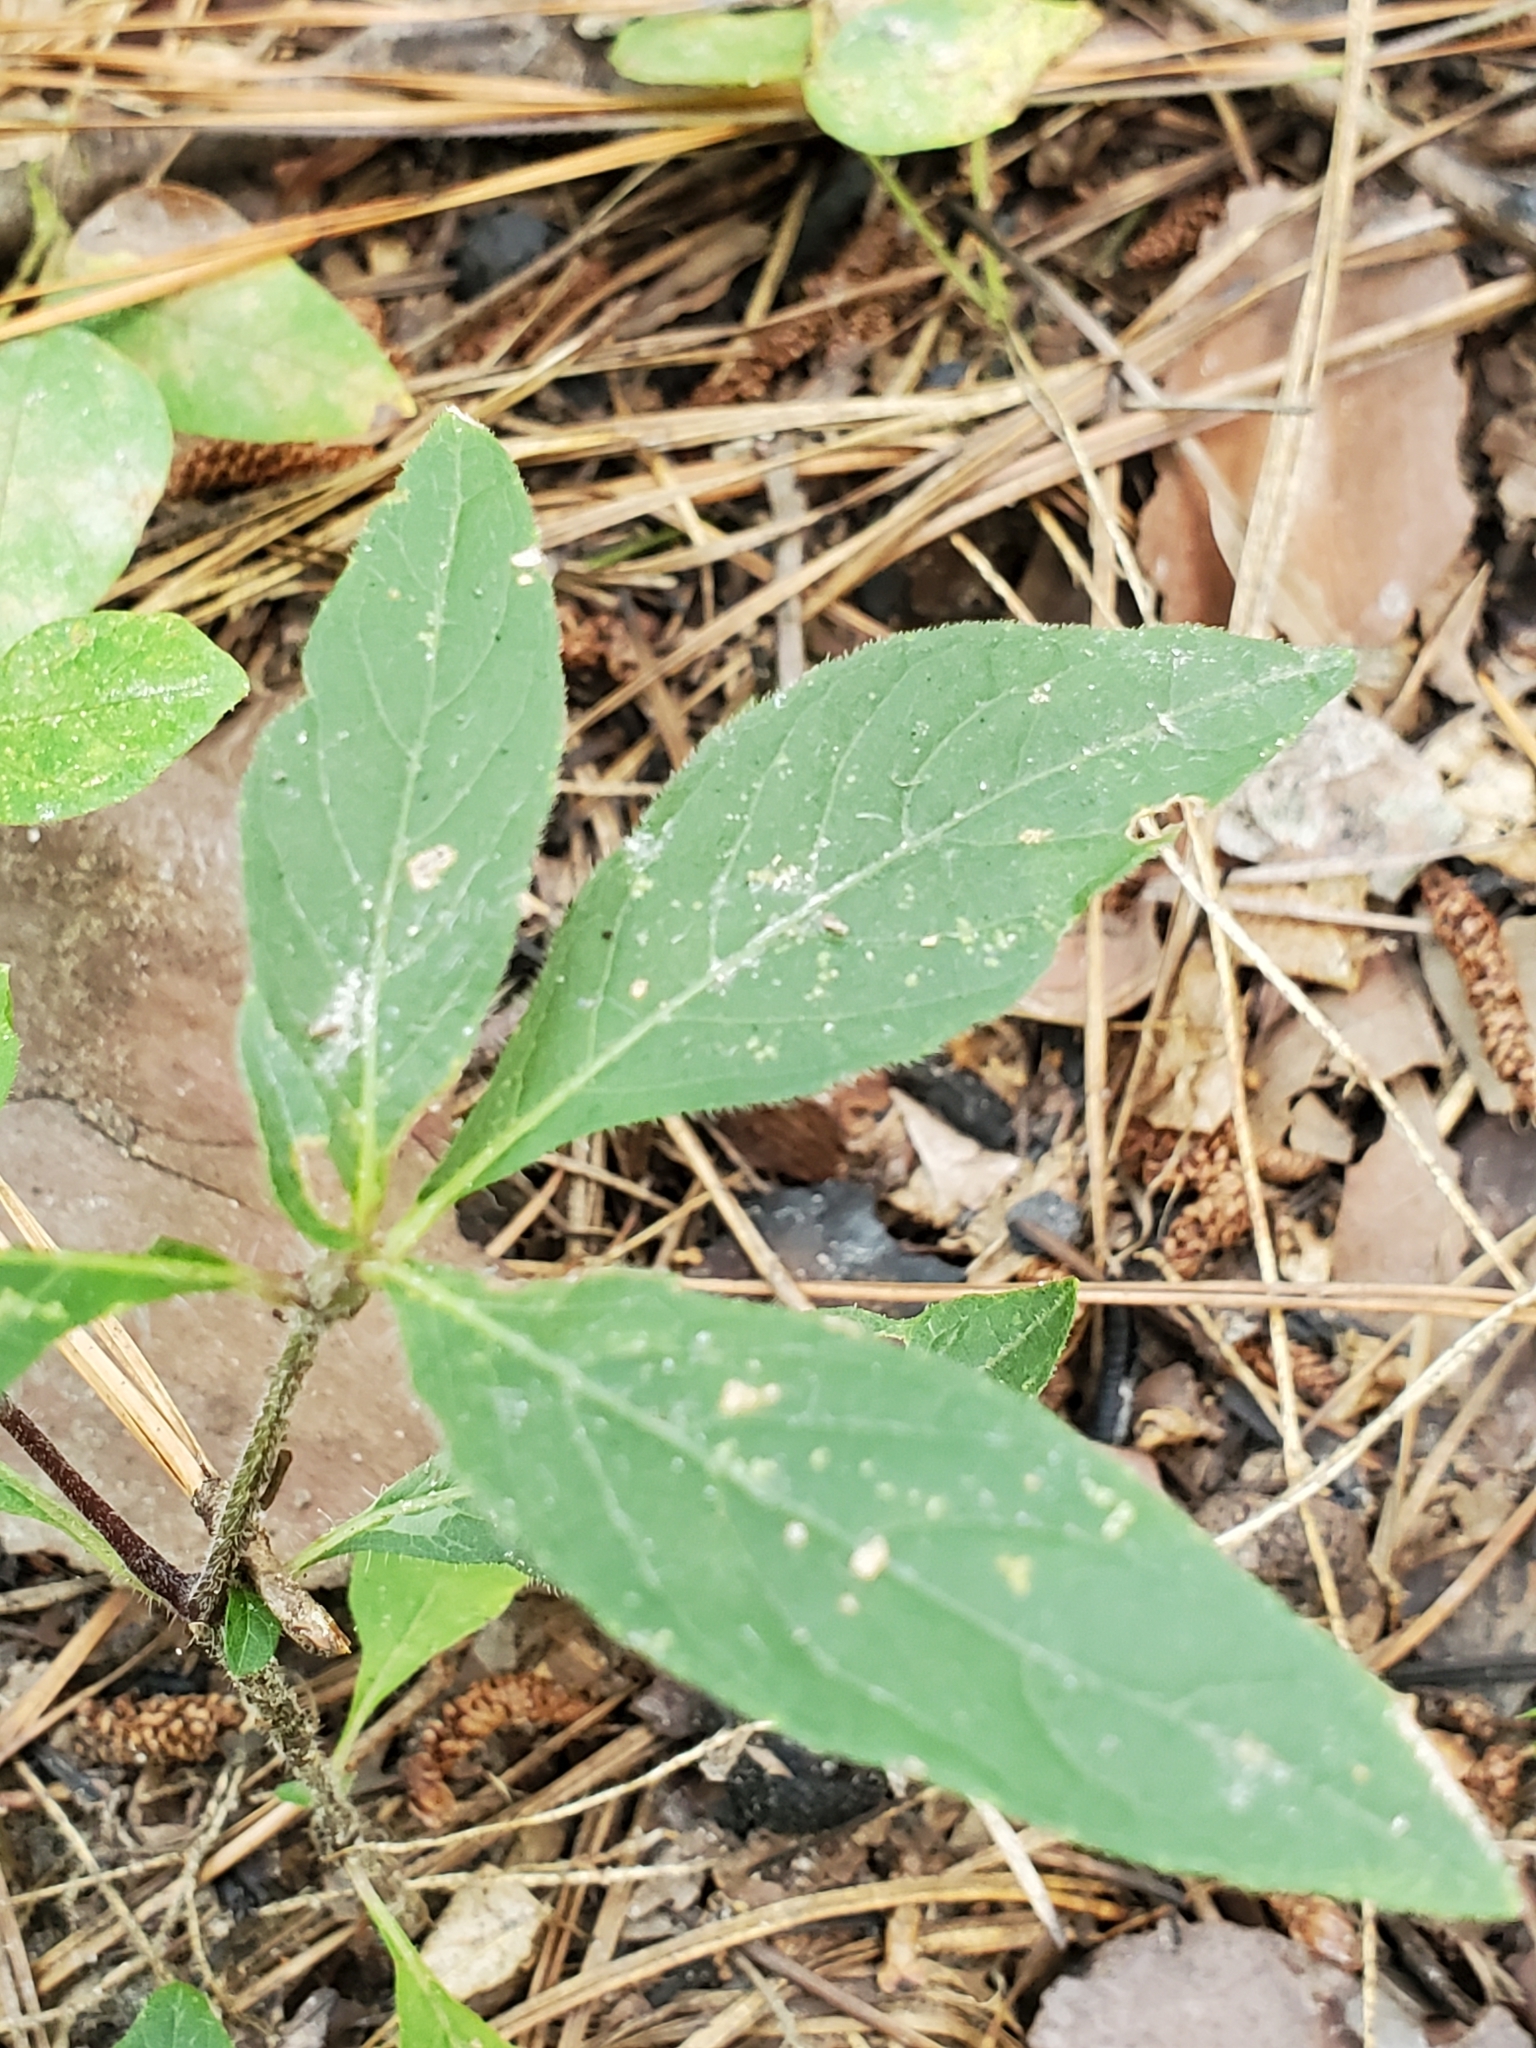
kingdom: Plantae
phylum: Tracheophyta
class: Magnoliopsida
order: Lamiales
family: Acanthaceae
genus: Ruellia
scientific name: Ruellia caroliniensis
